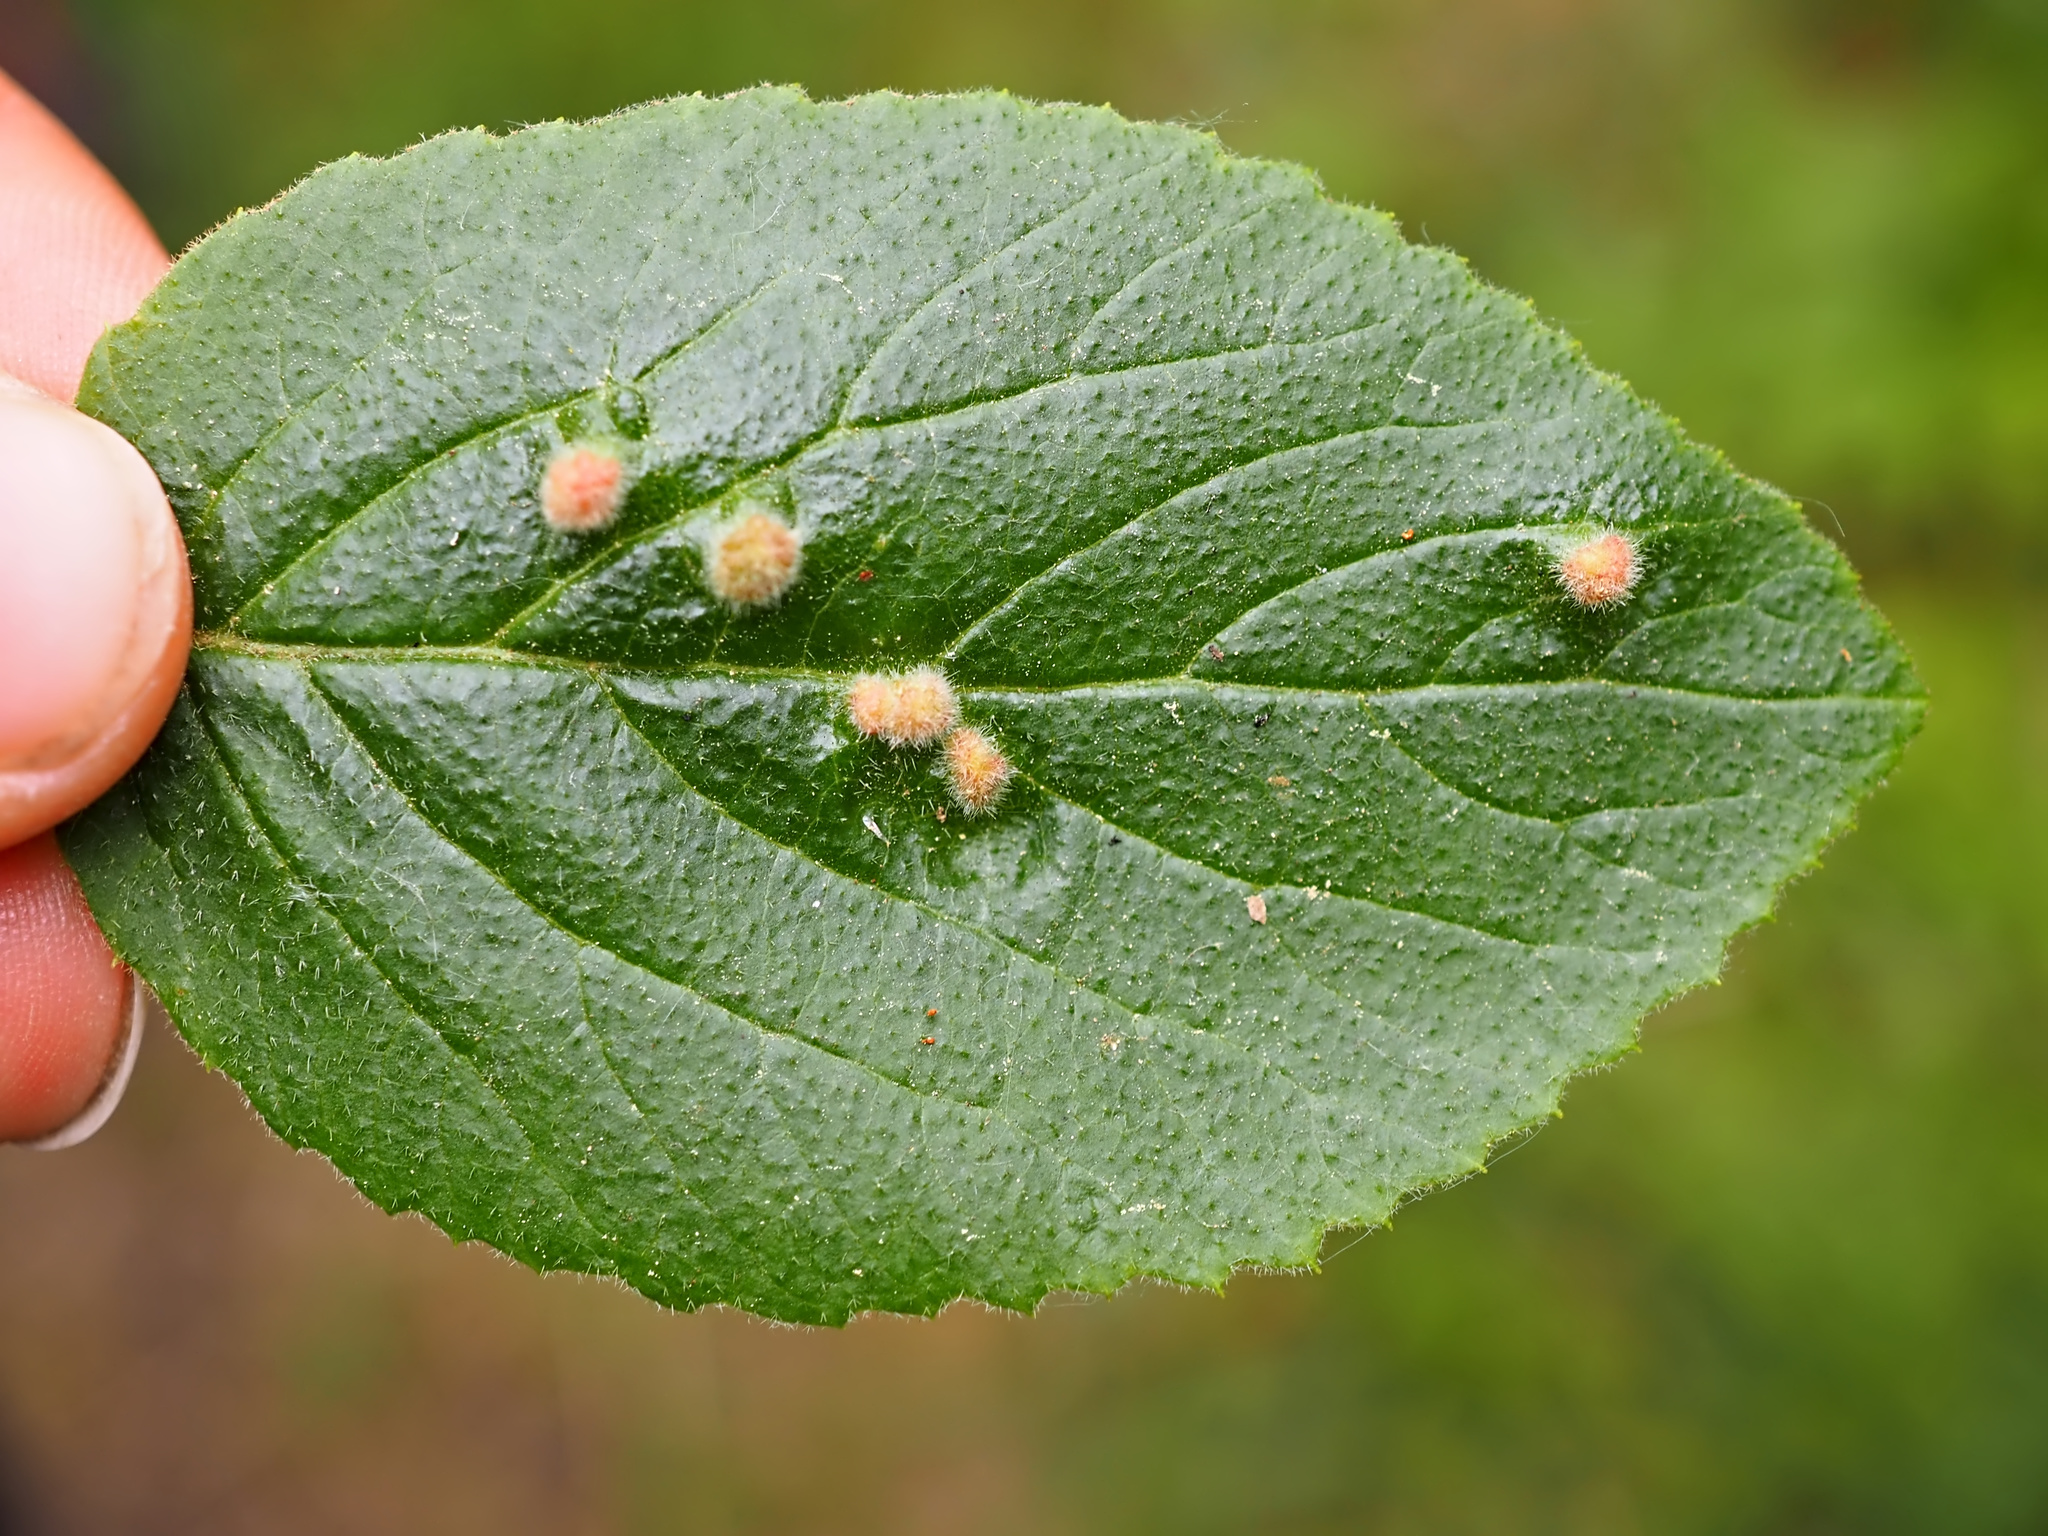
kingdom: Animalia
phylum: Arthropoda
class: Arachnida
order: Trombidiformes
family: Eriophyidae
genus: Eriophyes
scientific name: Eriophyes viburni
